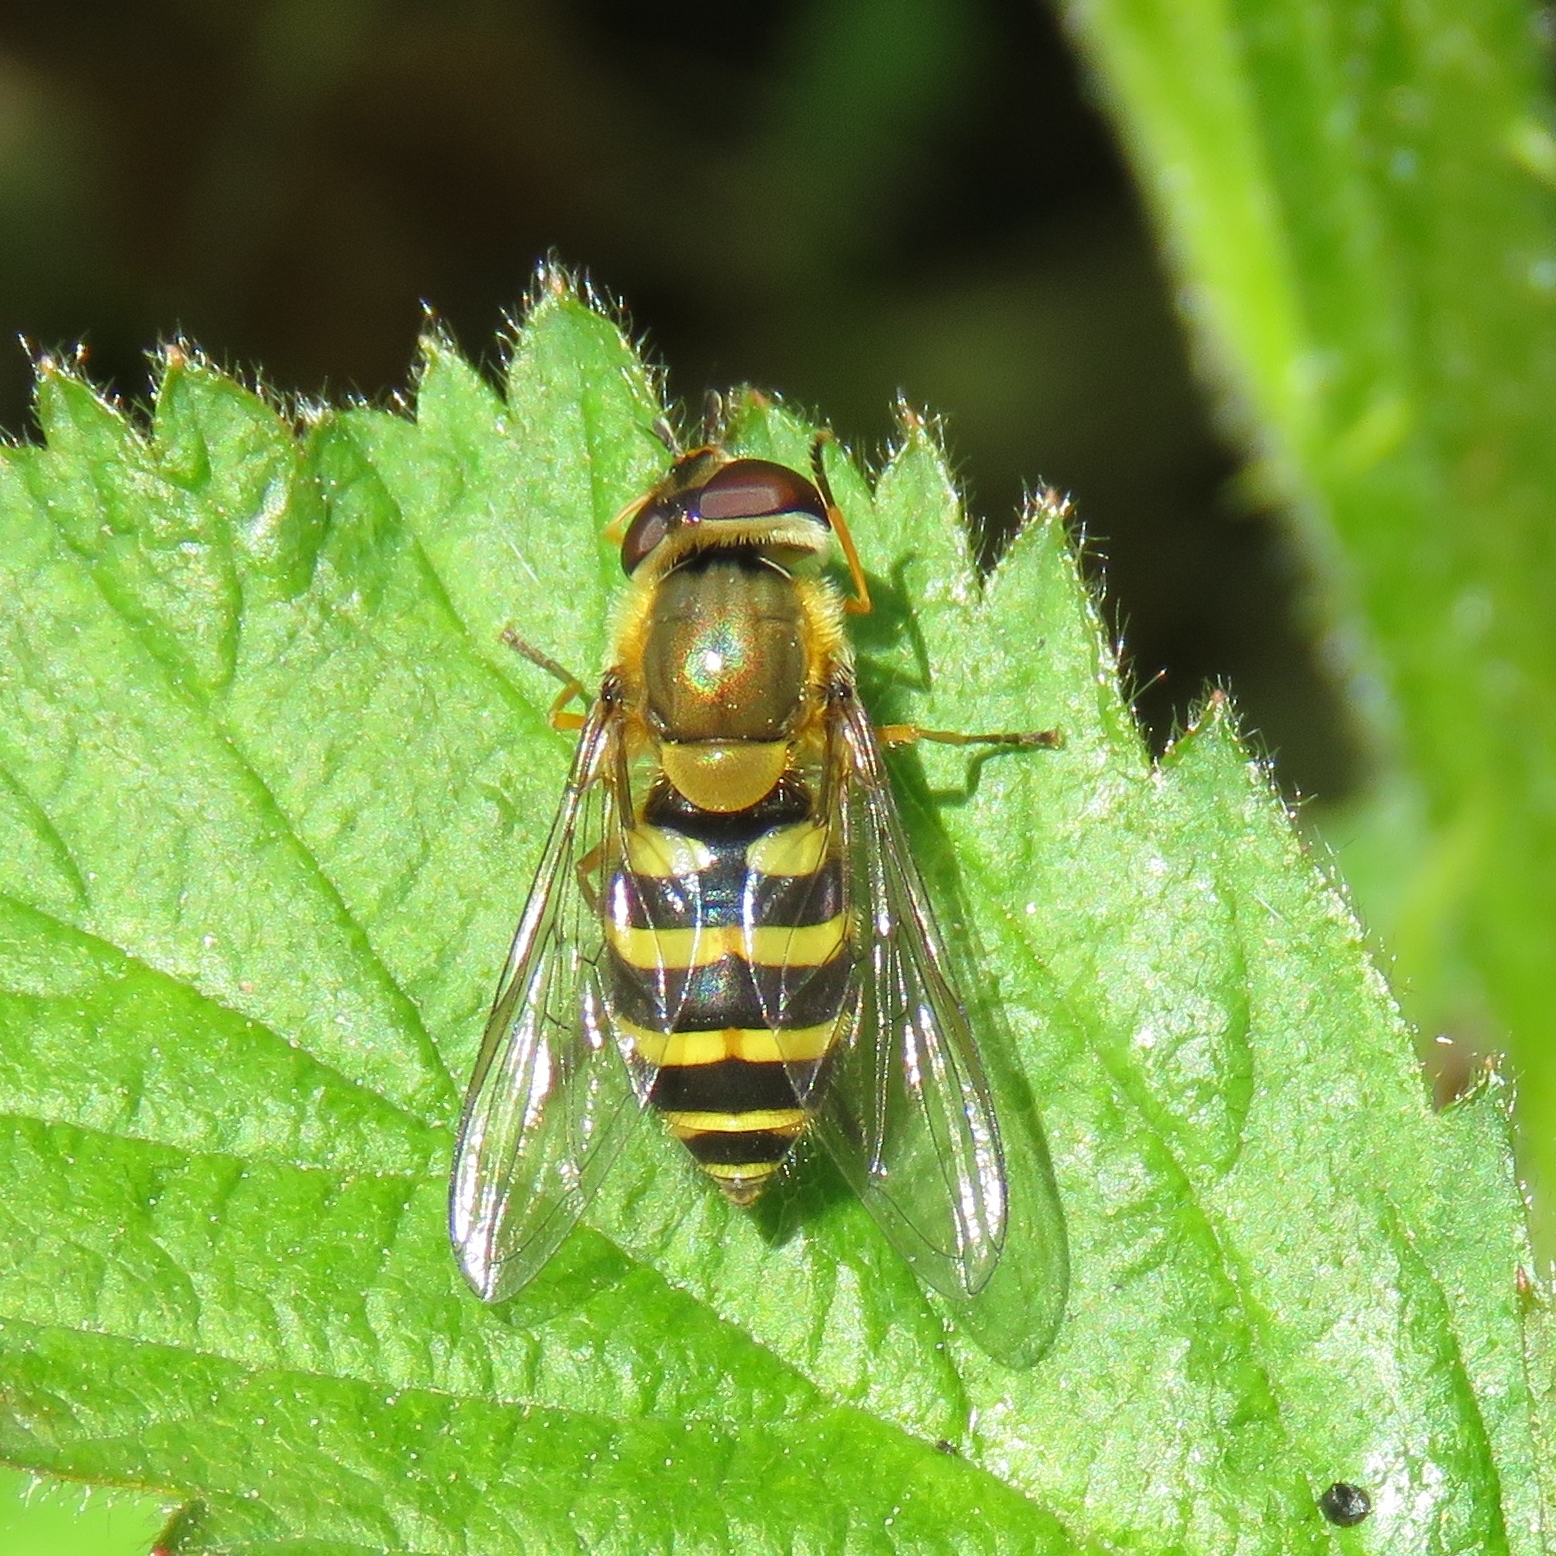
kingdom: Animalia
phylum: Arthropoda
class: Insecta
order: Diptera
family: Syrphidae
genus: Syrphus
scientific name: Syrphus
